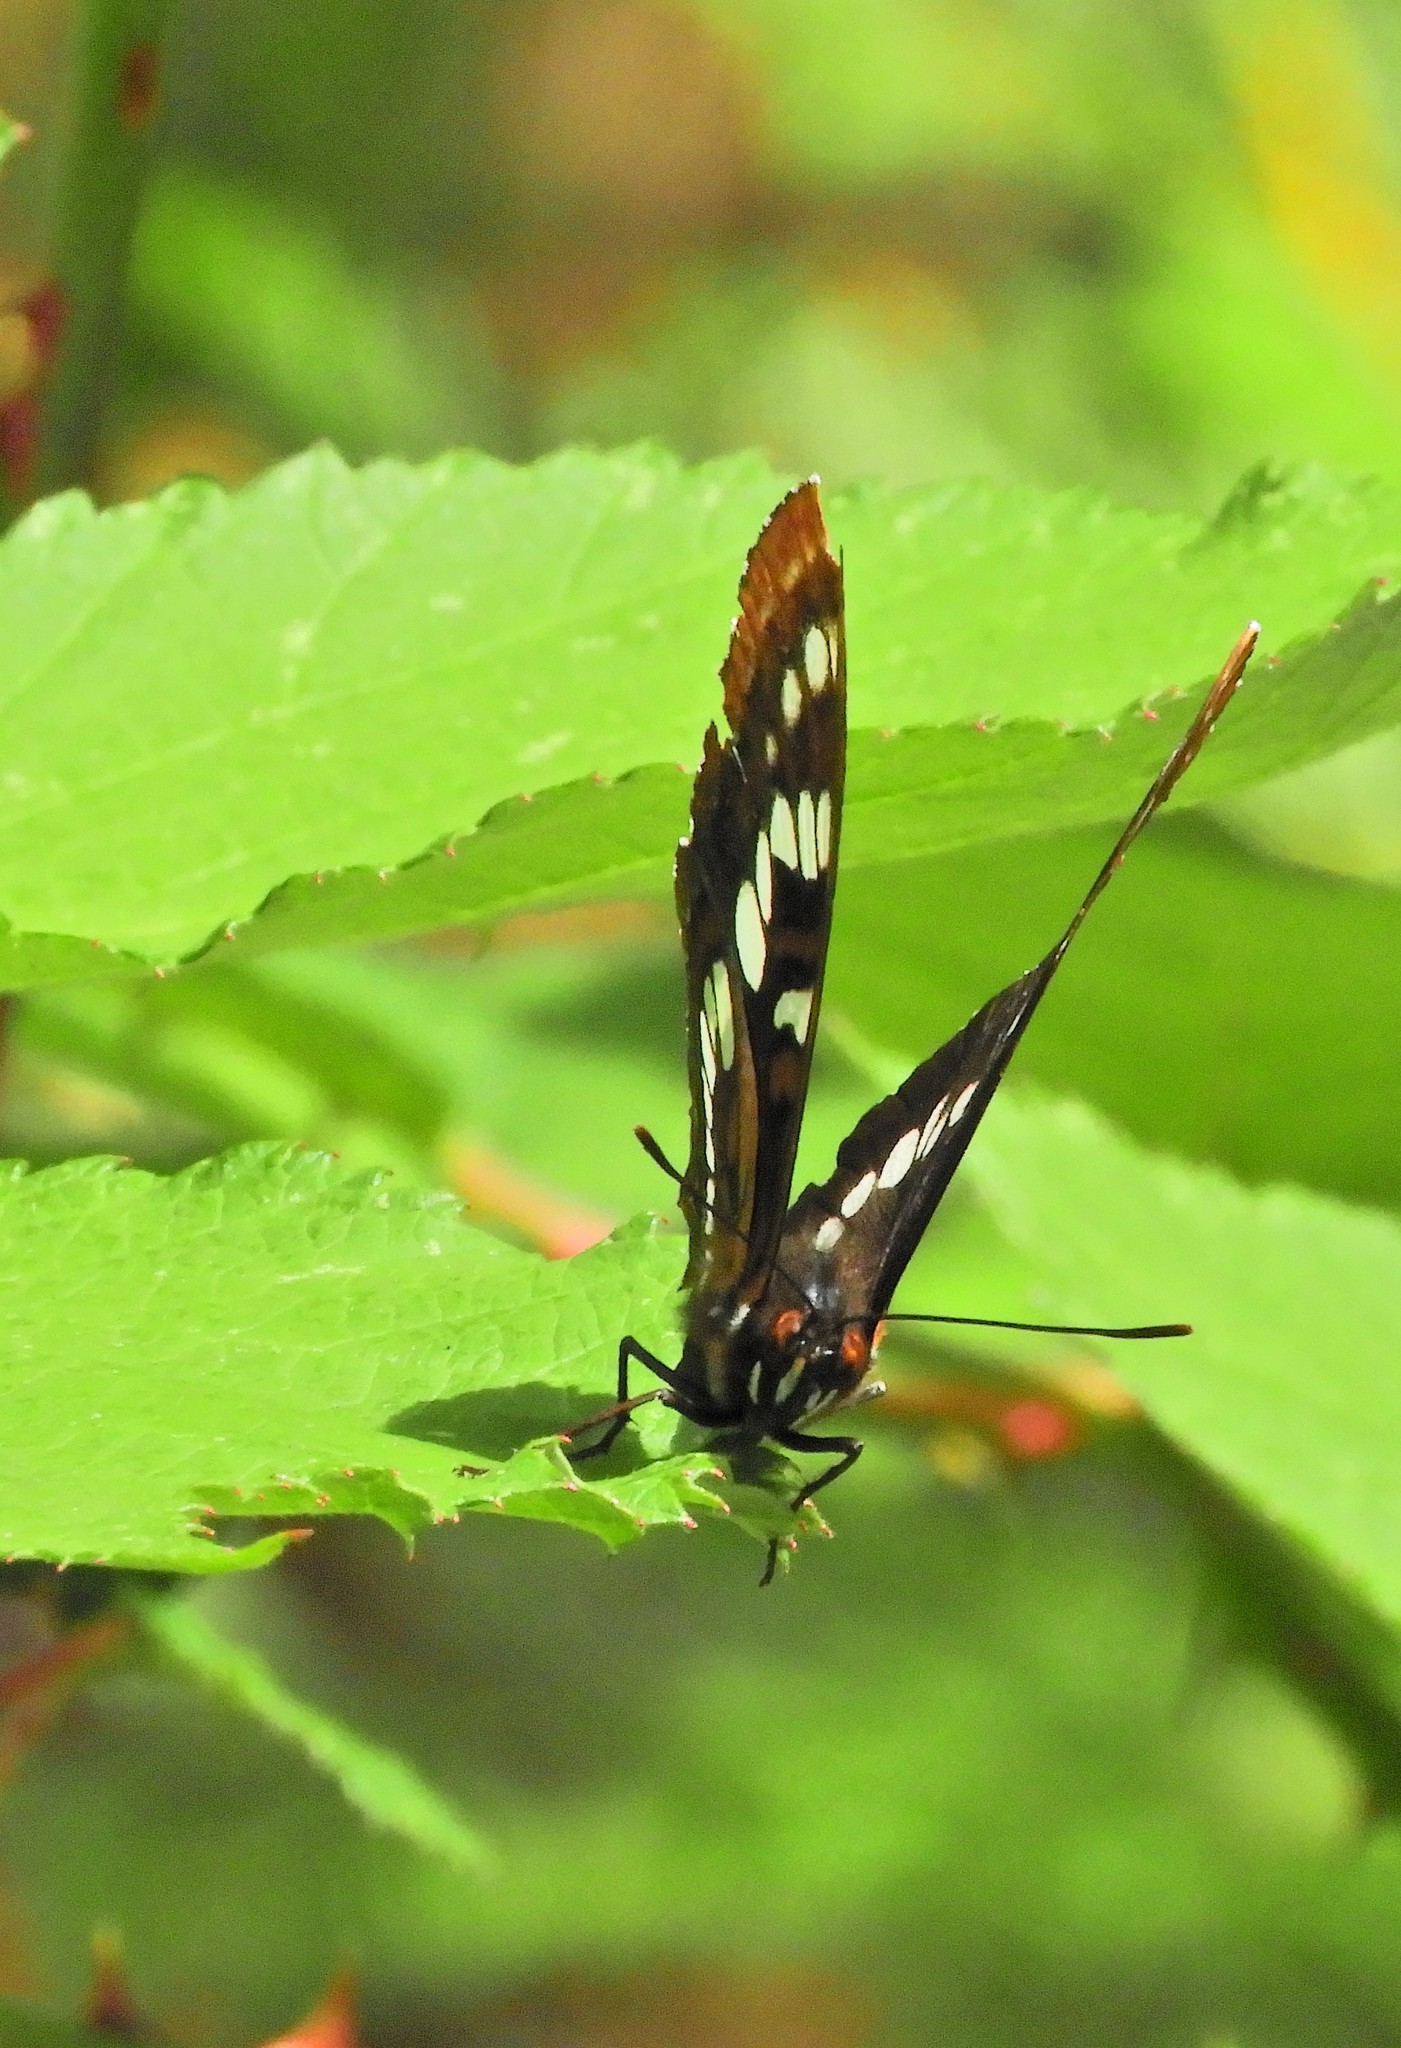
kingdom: Animalia
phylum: Arthropoda
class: Insecta
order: Lepidoptera
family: Nymphalidae
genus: Limenitis
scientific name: Limenitis lorquini
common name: Lorquin's admiral
